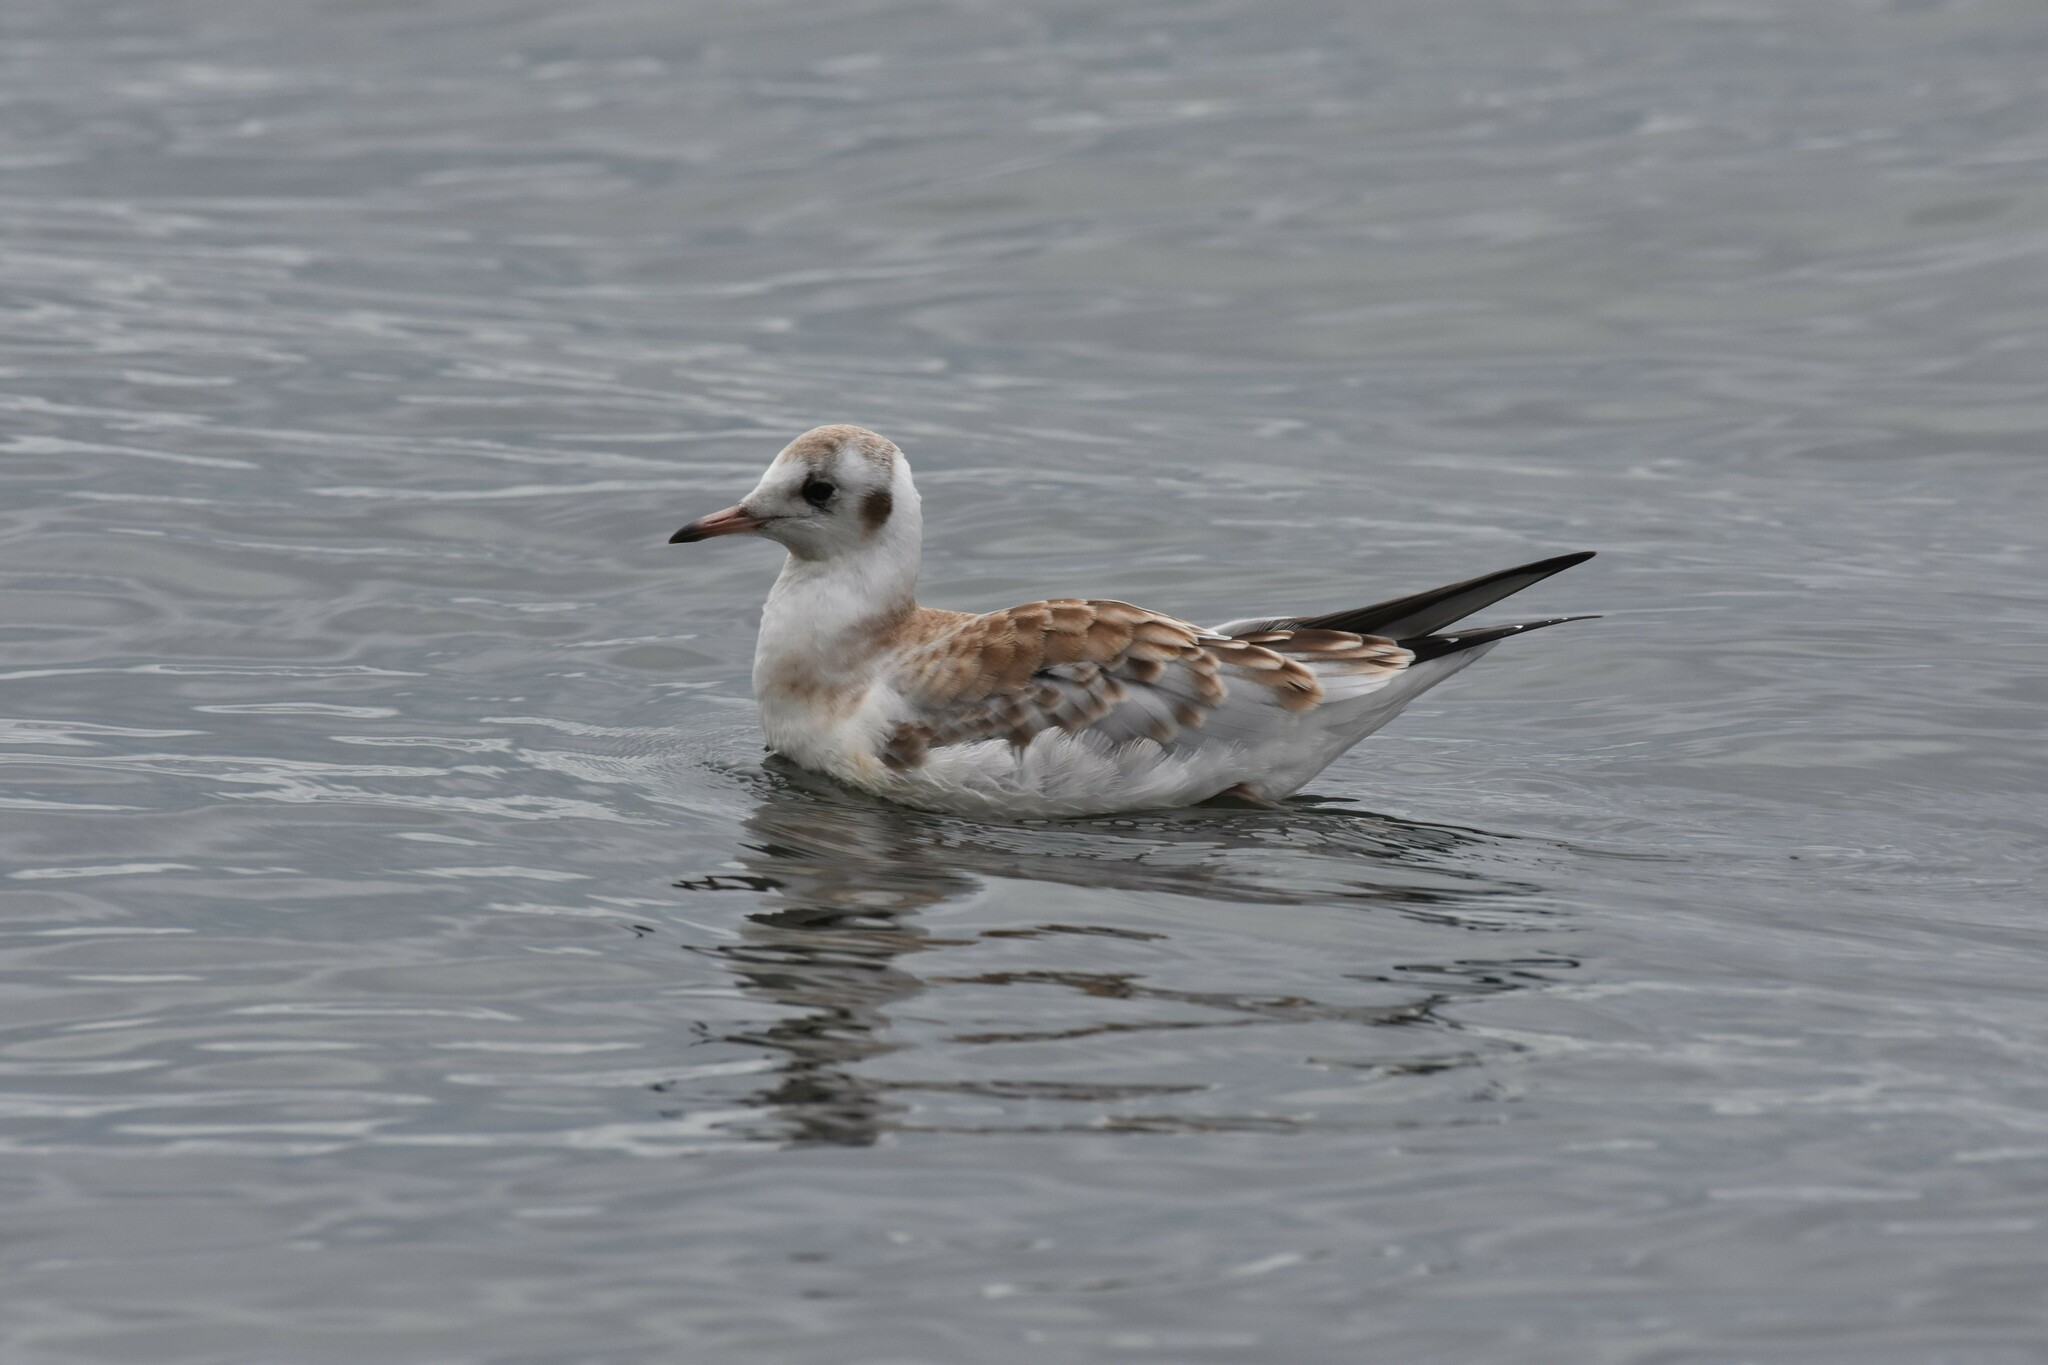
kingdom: Animalia
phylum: Chordata
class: Aves
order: Charadriiformes
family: Laridae
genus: Chroicocephalus
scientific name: Chroicocephalus ridibundus
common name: Black-headed gull
